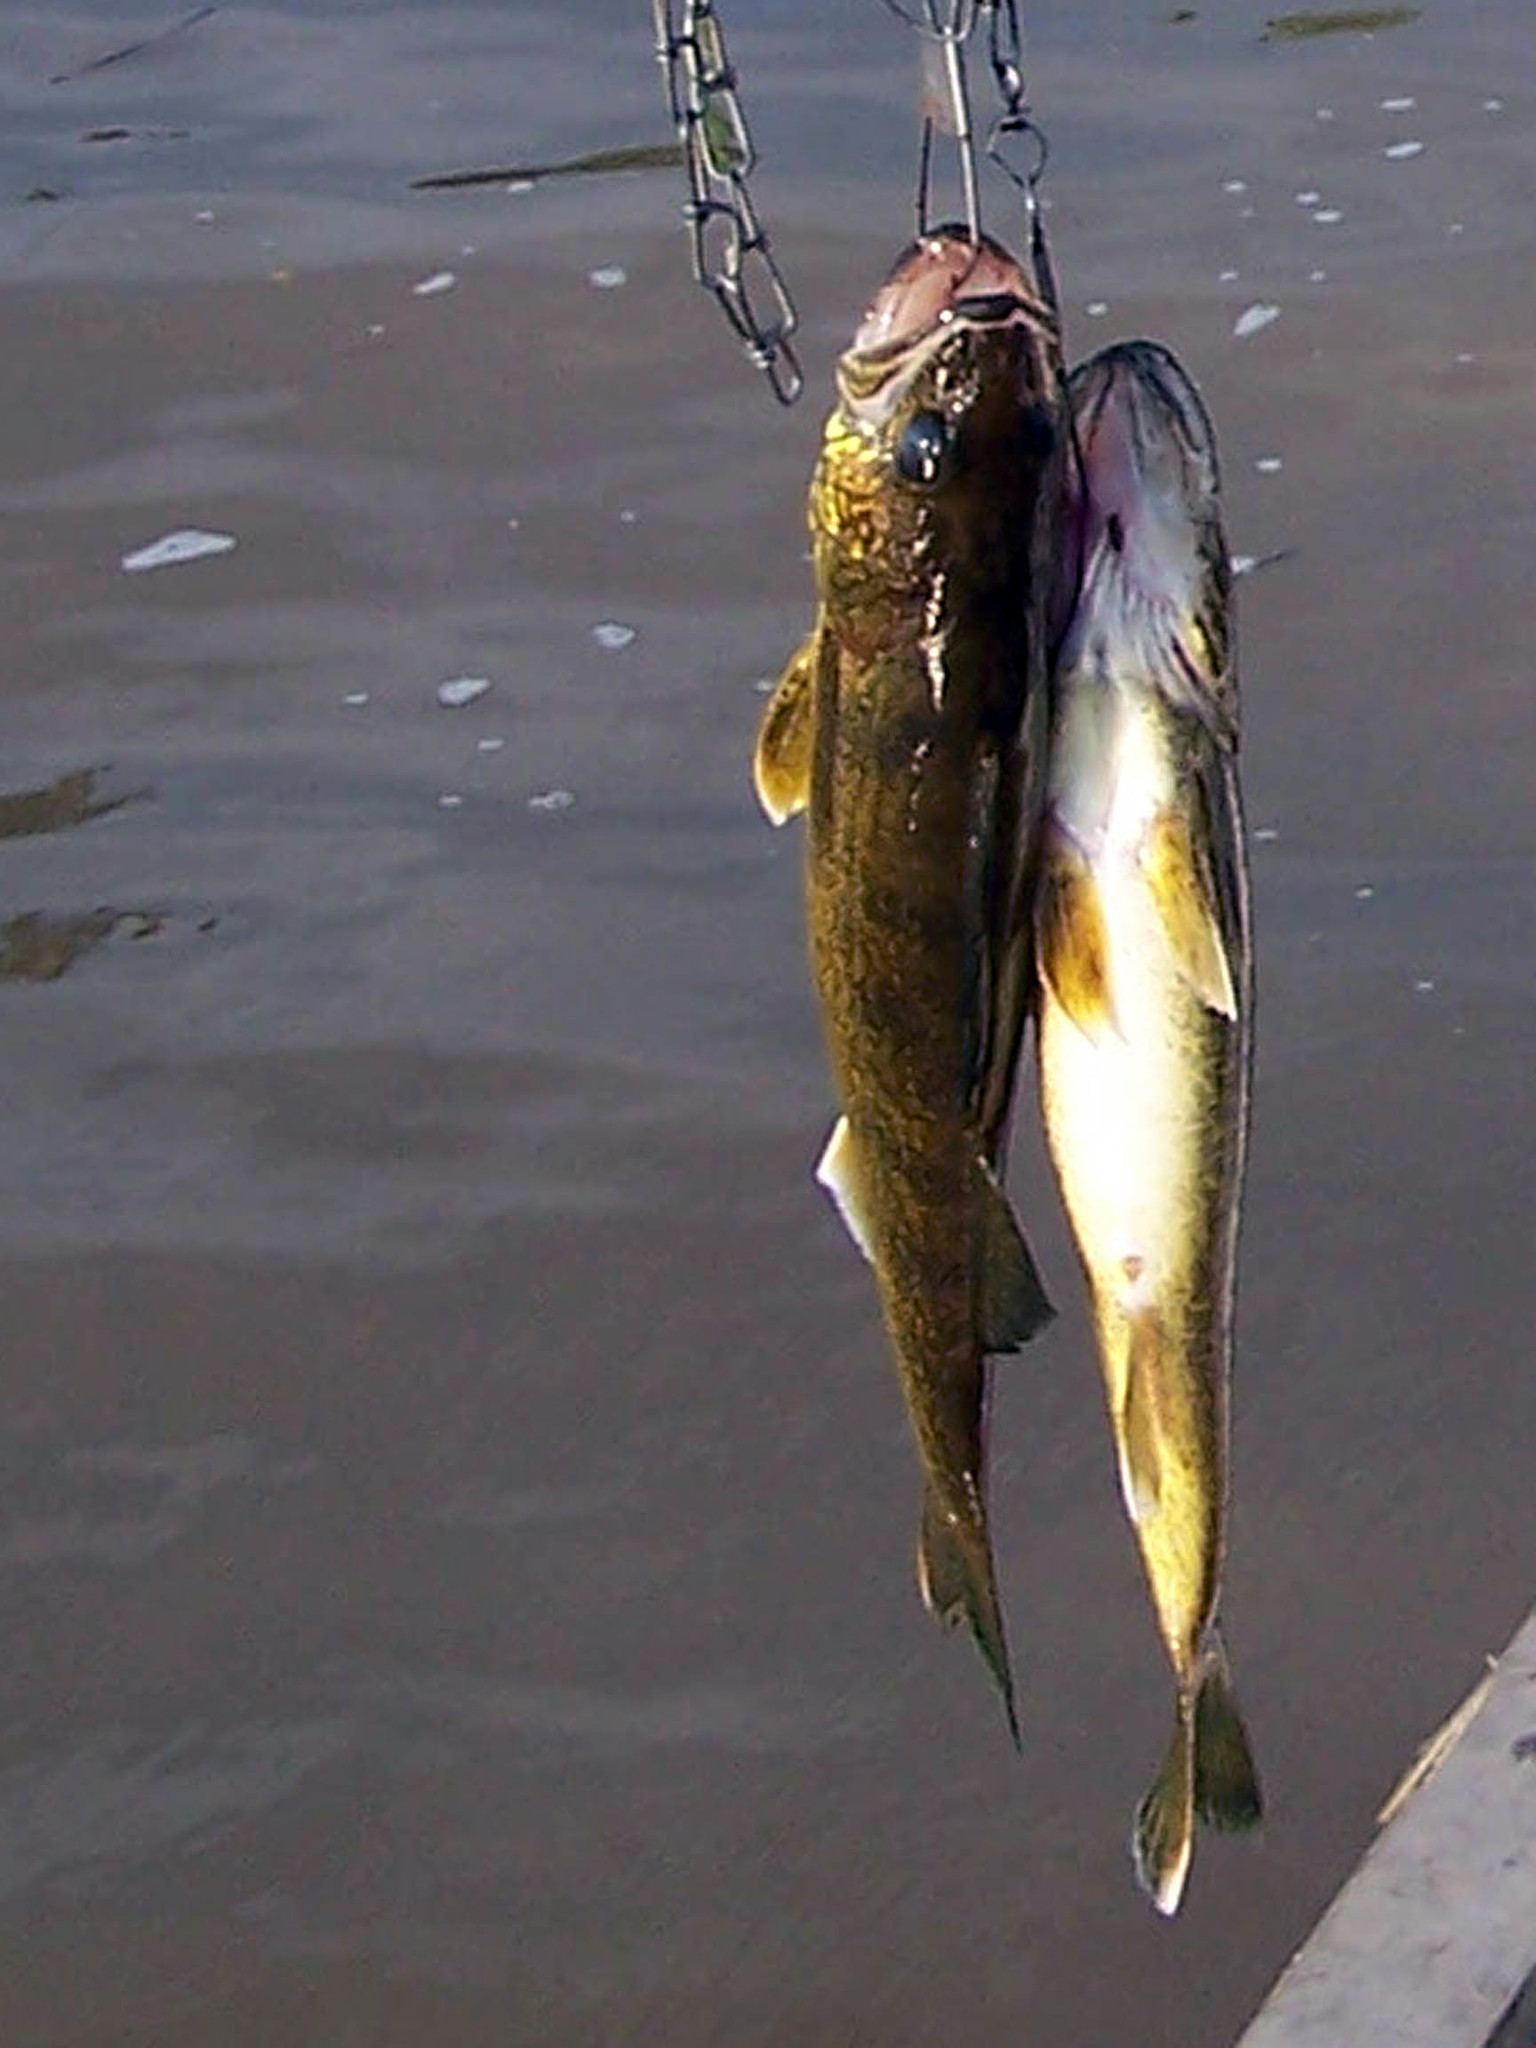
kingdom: Animalia
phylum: Chordata
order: Perciformes
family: Percidae
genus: Sander
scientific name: Sander vitreus
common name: Walleye
